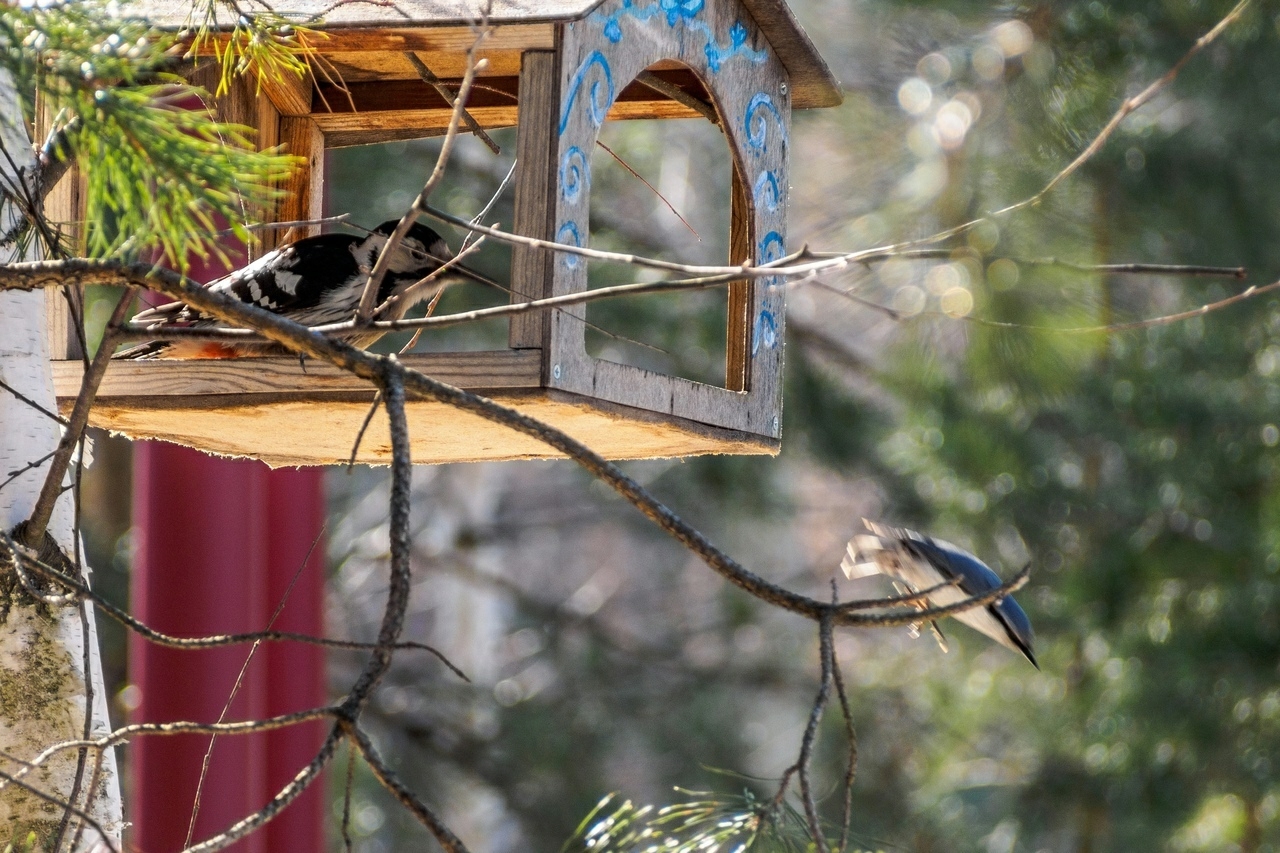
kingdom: Animalia
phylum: Chordata
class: Aves
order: Passeriformes
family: Sittidae
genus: Sitta
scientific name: Sitta europaea
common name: Eurasian nuthatch
